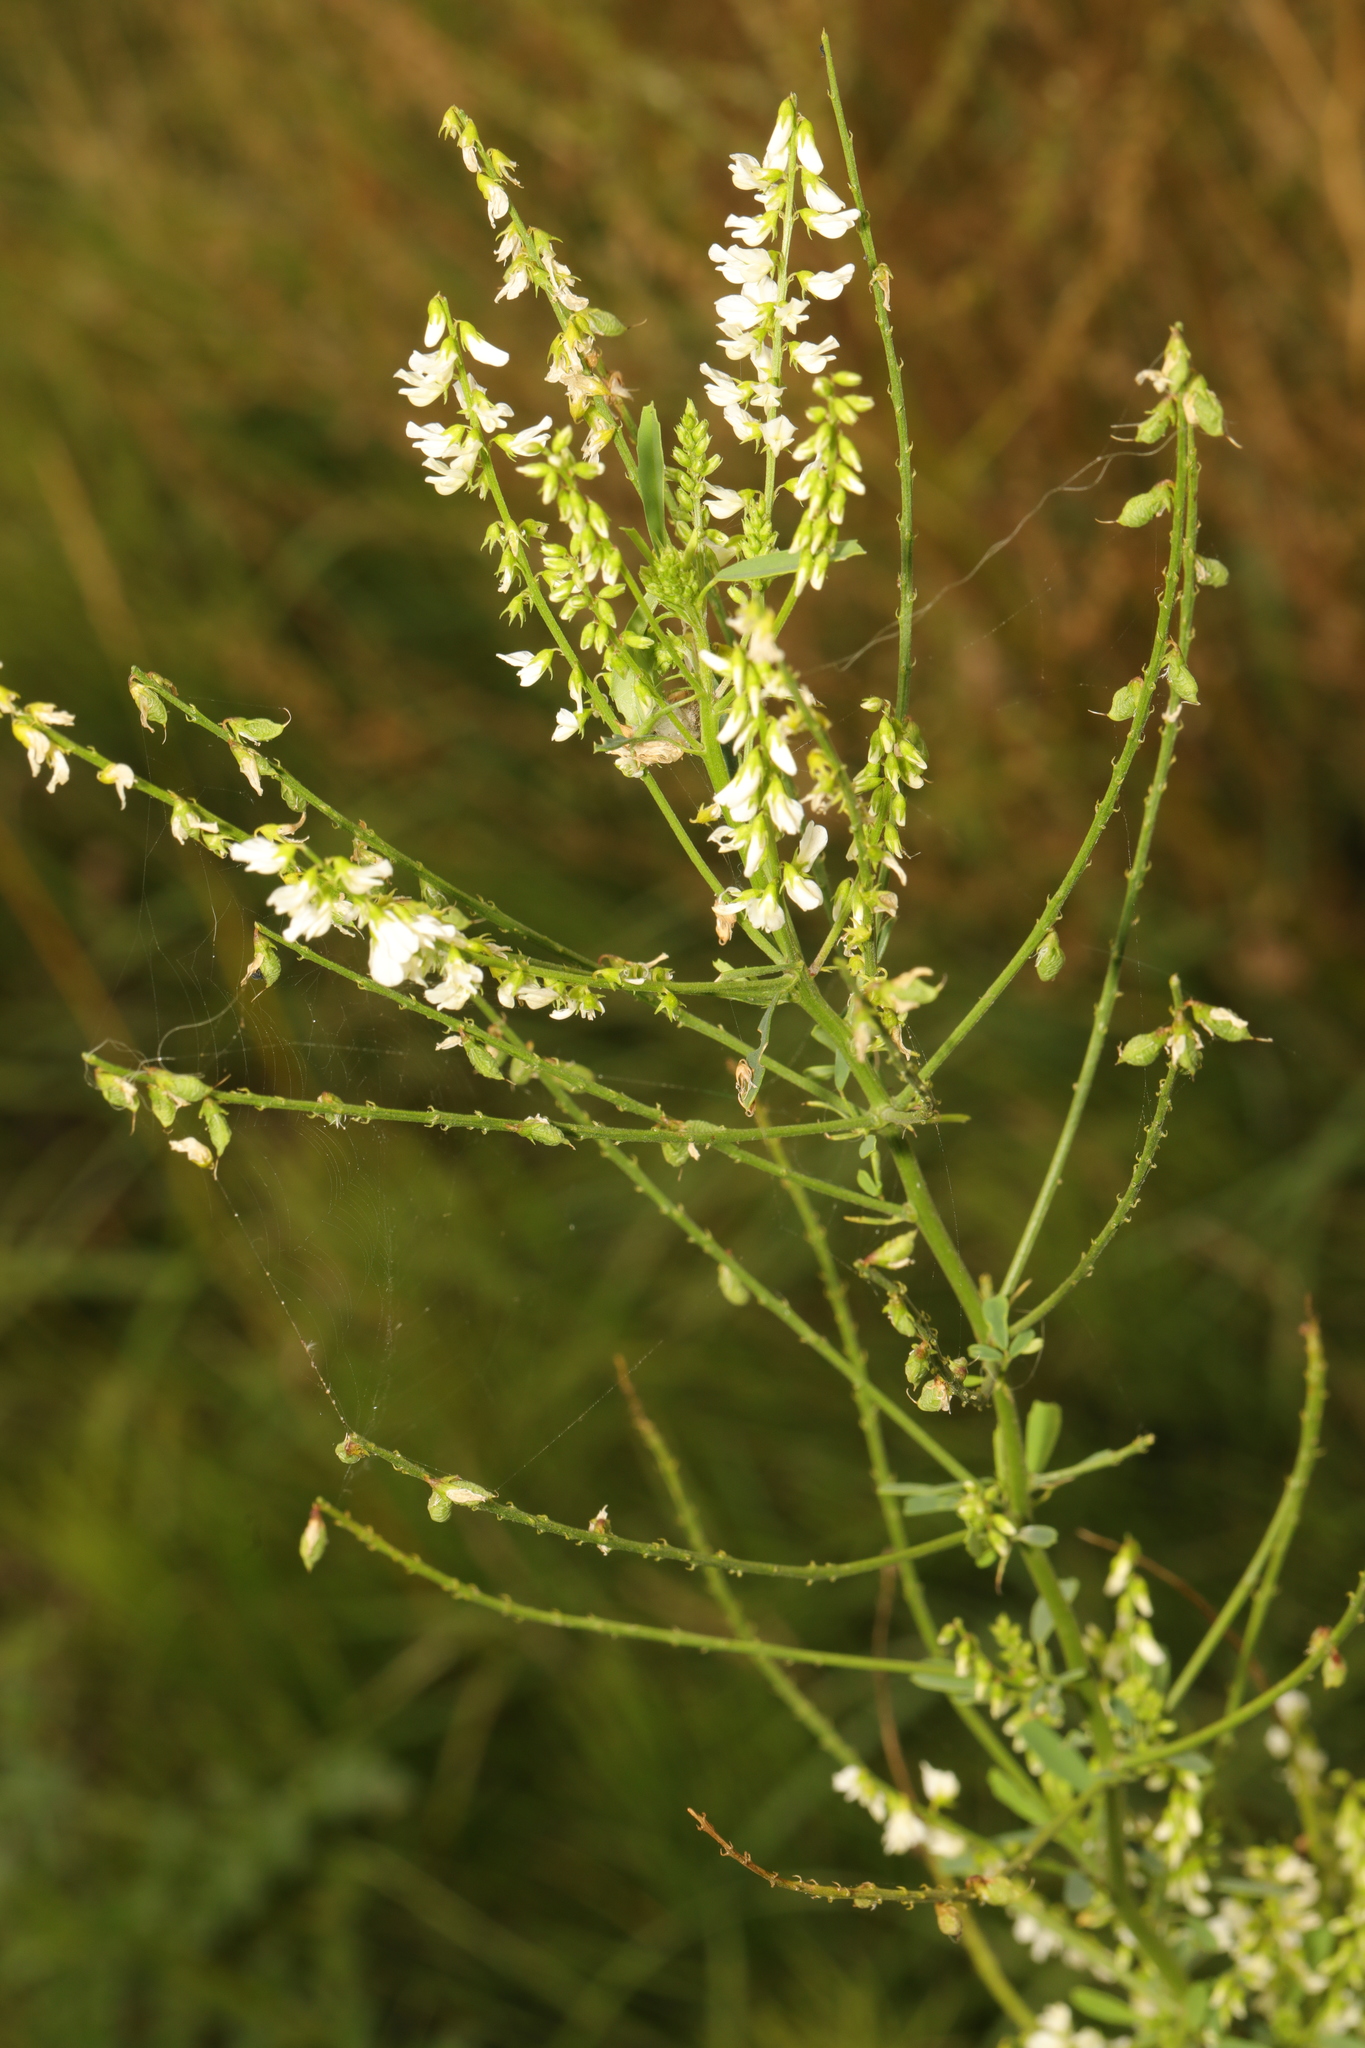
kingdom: Plantae
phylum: Tracheophyta
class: Magnoliopsida
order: Fabales
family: Fabaceae
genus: Melilotus
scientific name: Melilotus albus
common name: White melilot
